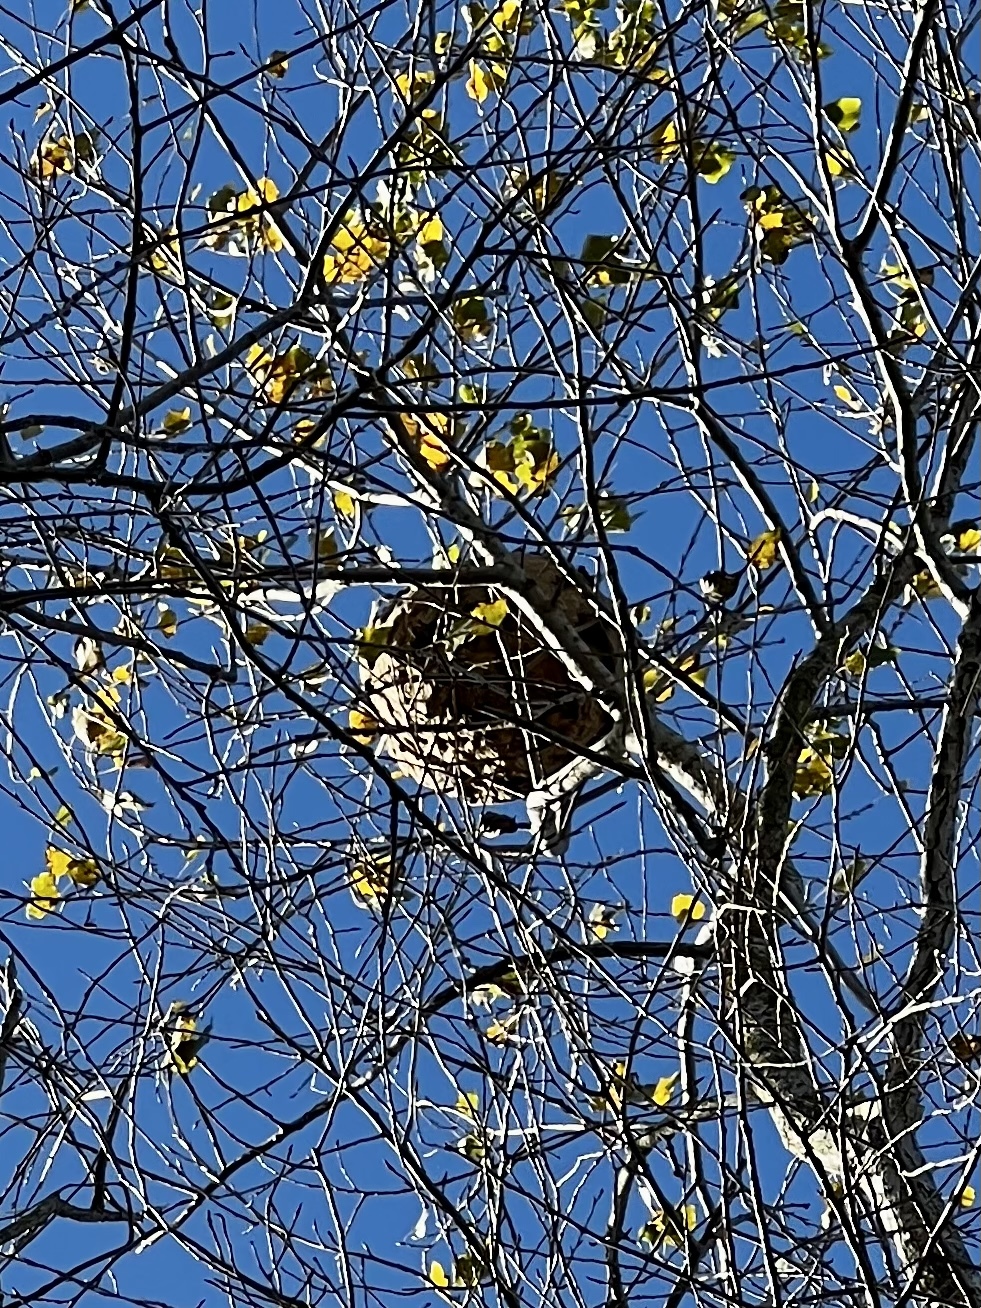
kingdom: Animalia
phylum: Arthropoda
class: Insecta
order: Hymenoptera
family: Vespidae
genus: Vespa
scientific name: Vespa velutina
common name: Asian hornet
